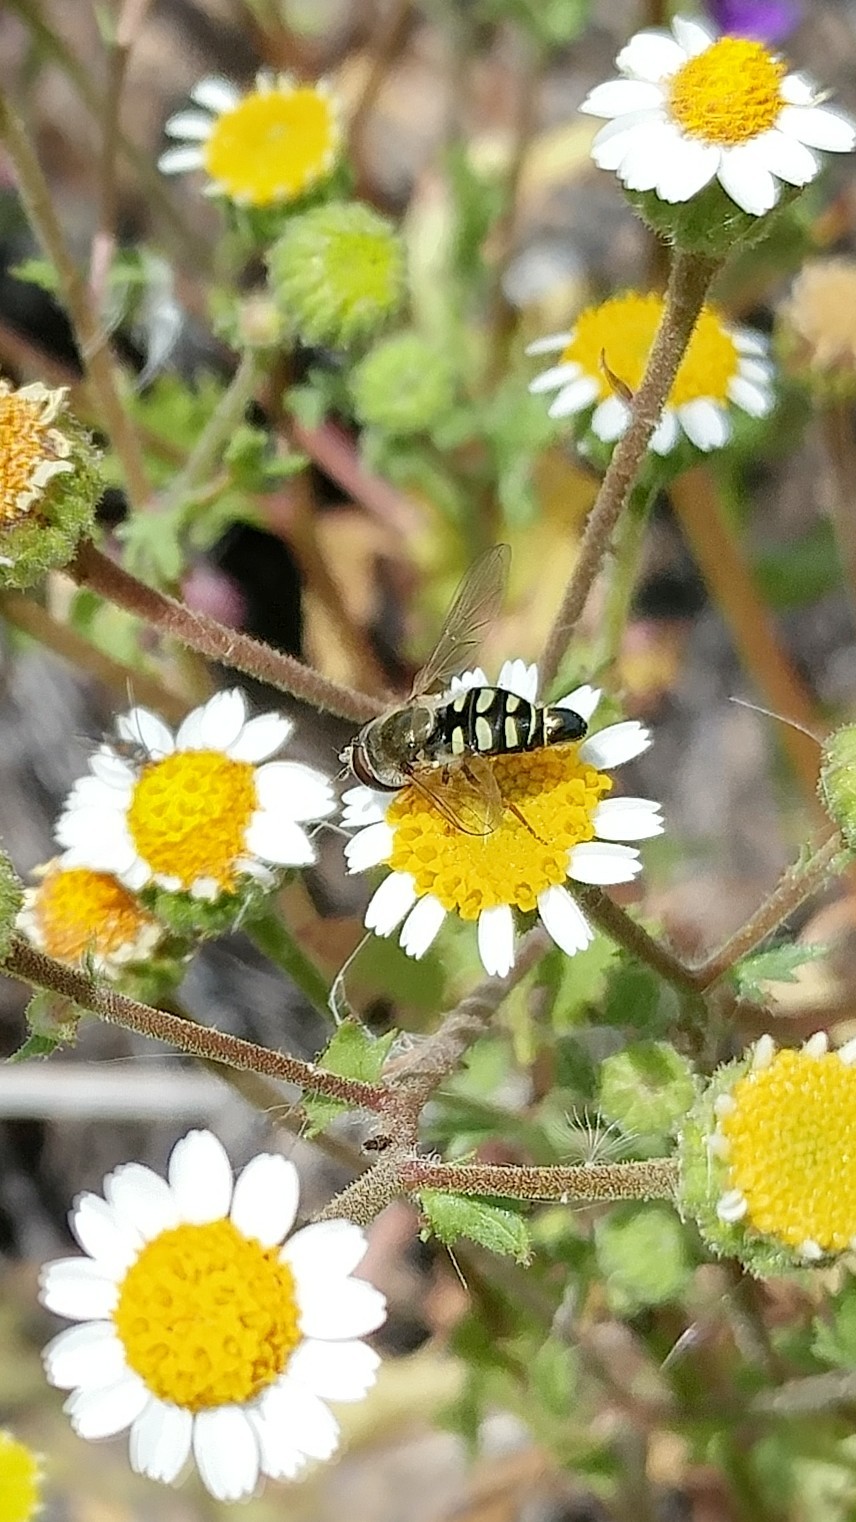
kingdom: Animalia
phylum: Arthropoda
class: Insecta
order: Diptera
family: Syrphidae
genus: Eupeodes
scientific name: Eupeodes volucris
